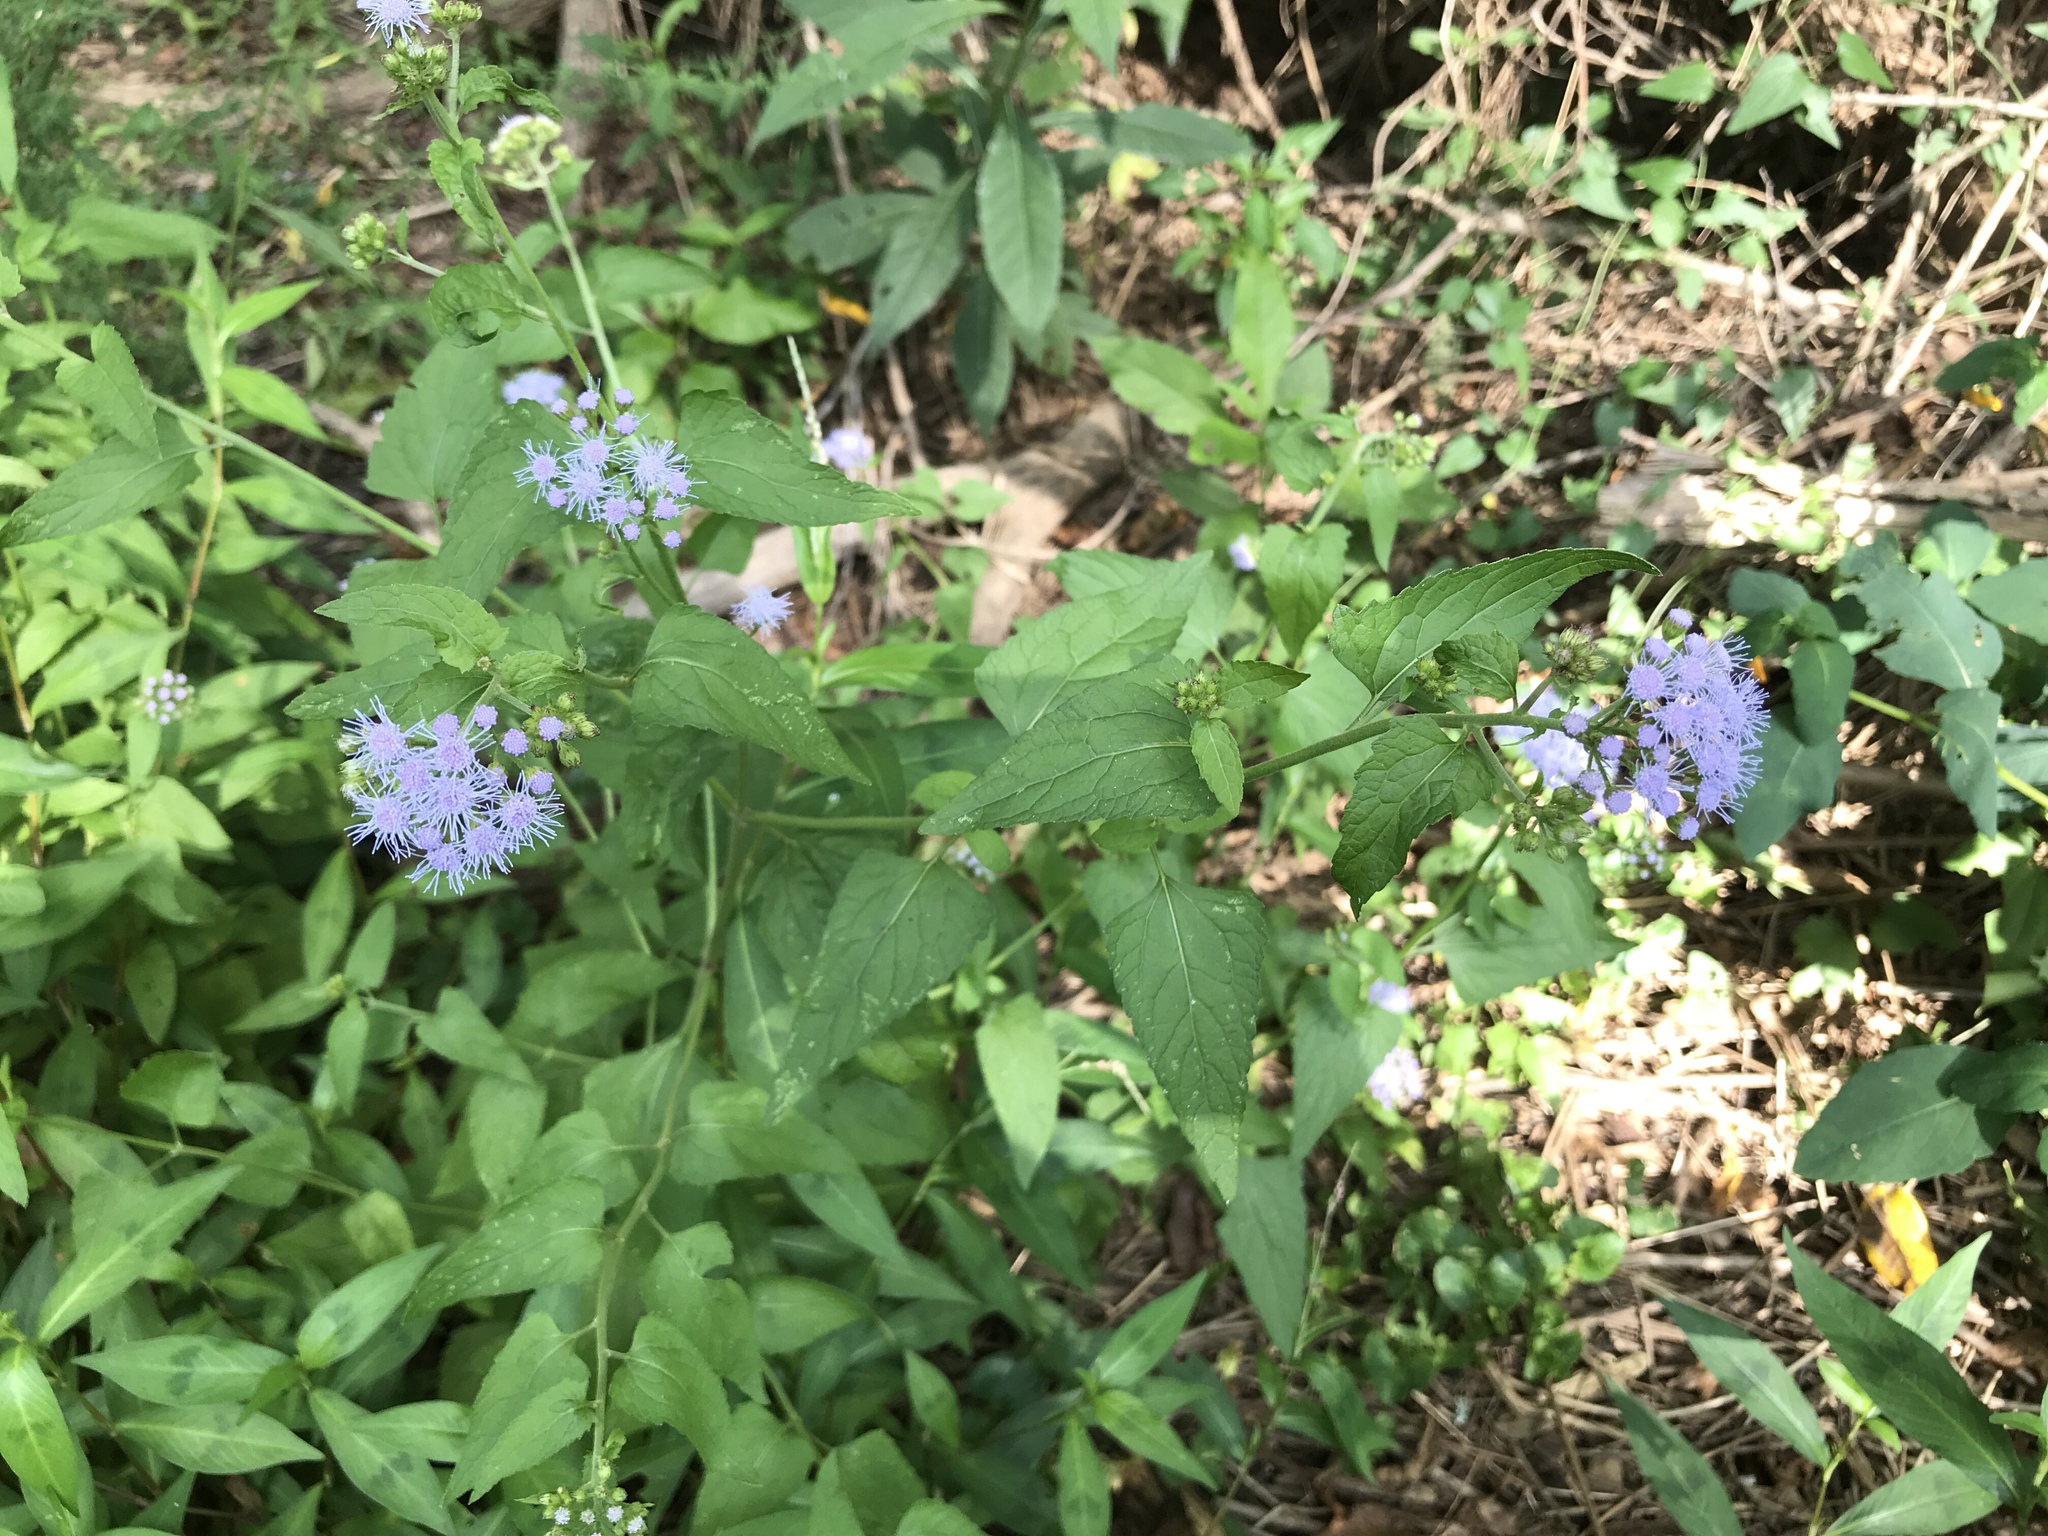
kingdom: Plantae
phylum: Tracheophyta
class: Magnoliopsida
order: Asterales
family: Asteraceae
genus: Conoclinium
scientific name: Conoclinium coelestinum
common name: Blue mistflower
